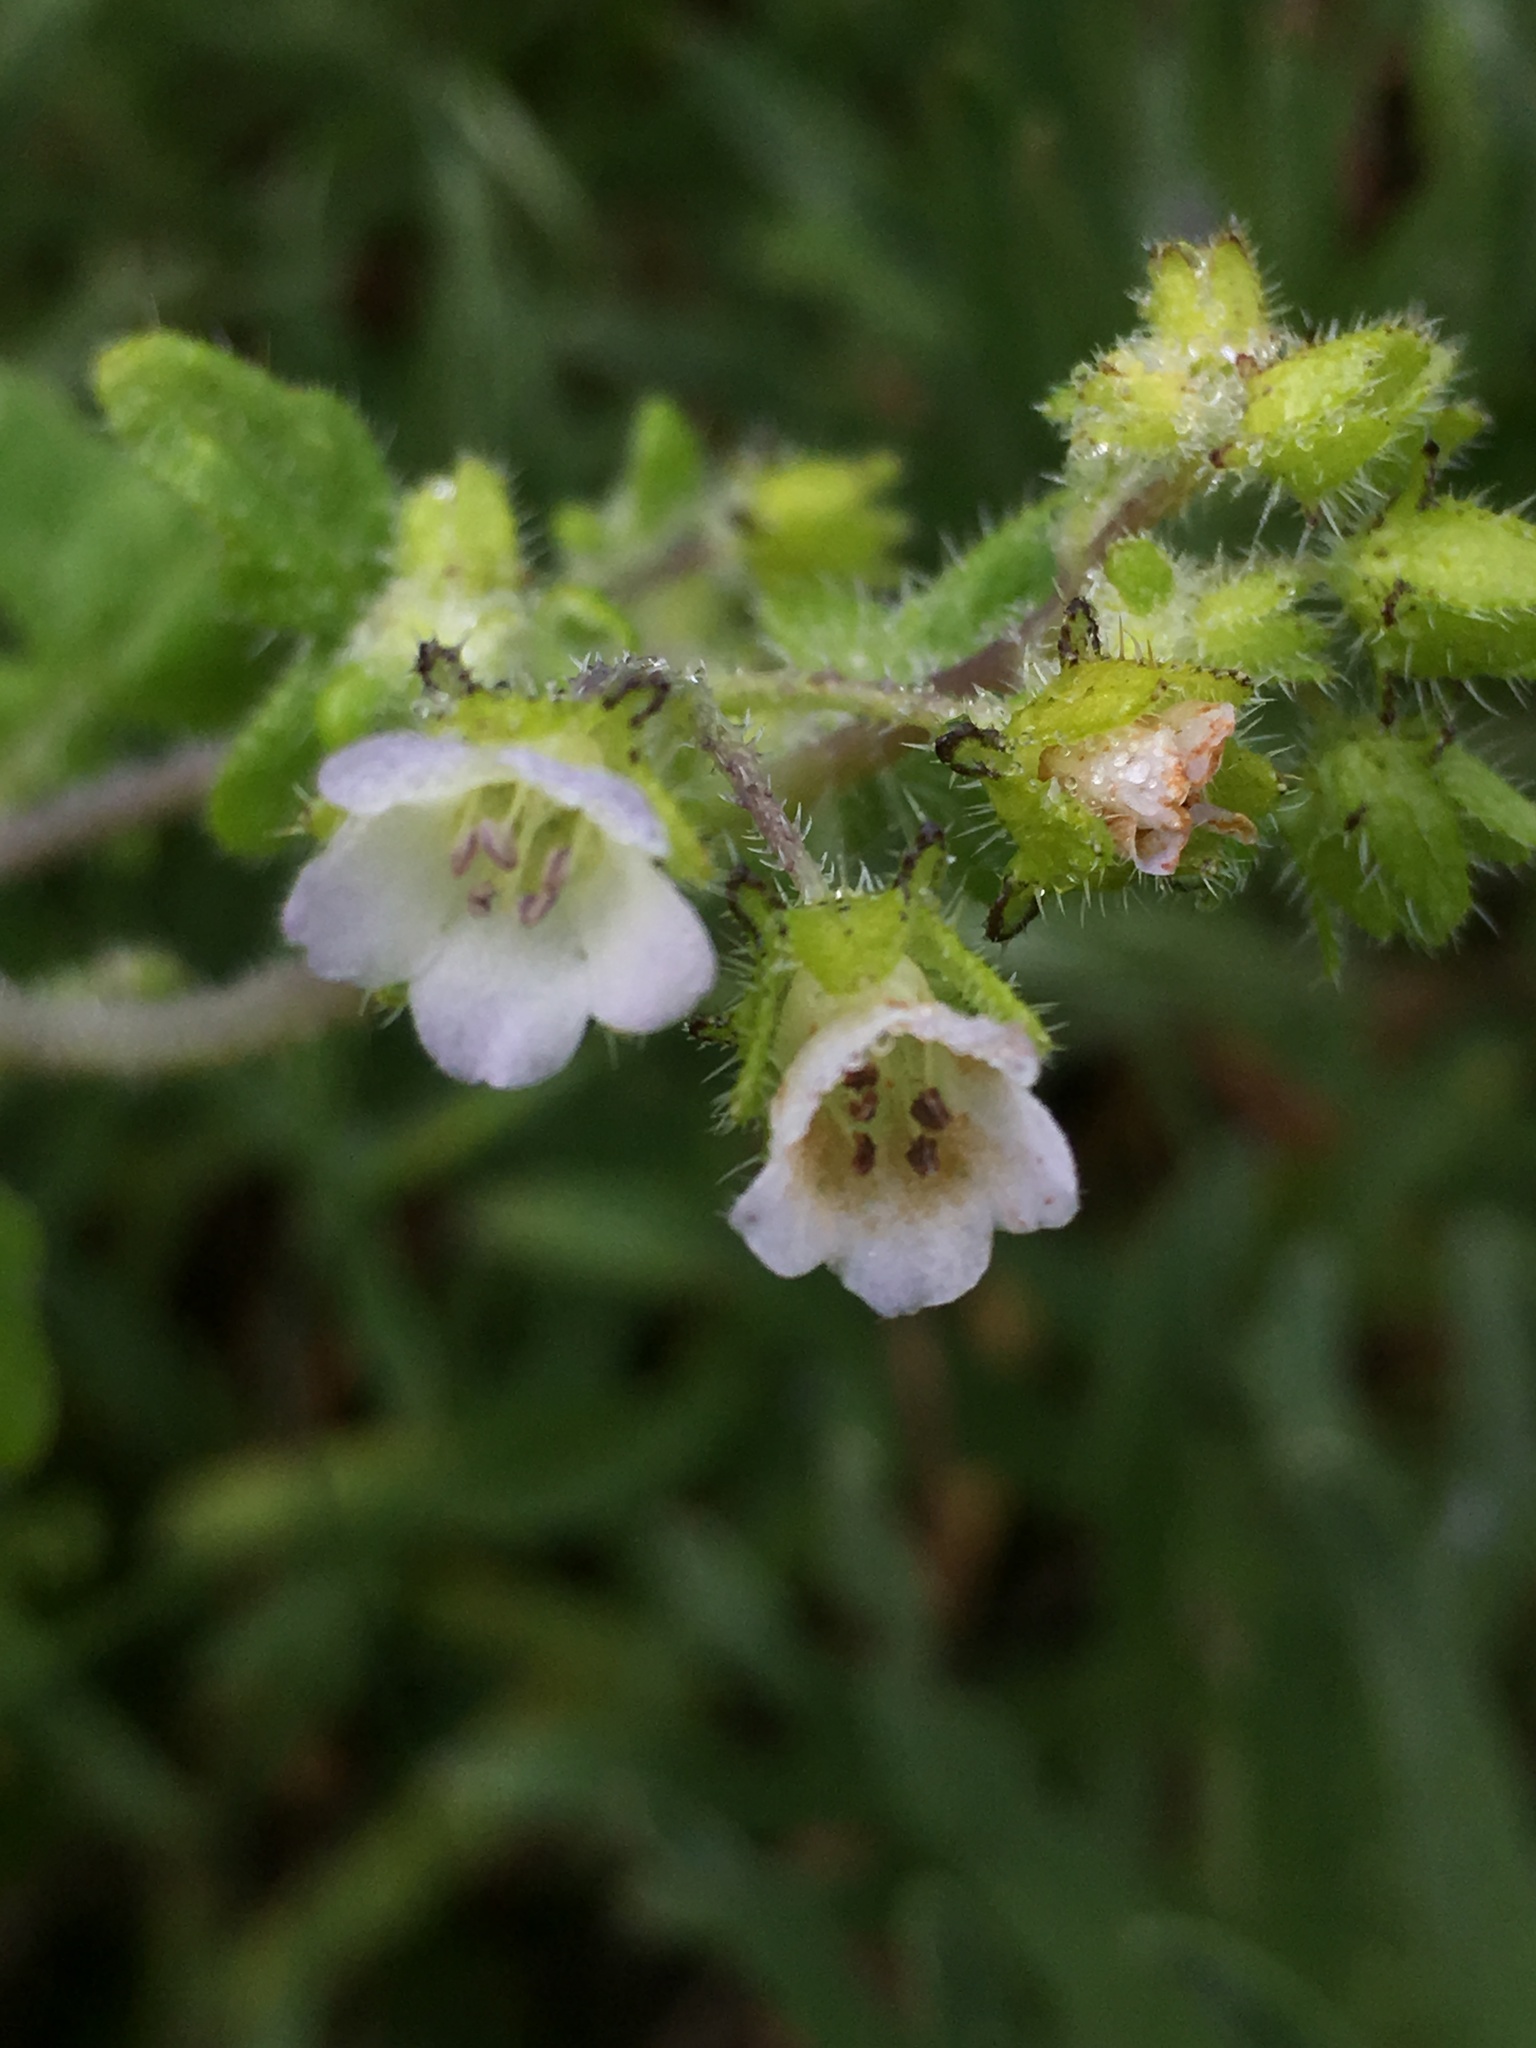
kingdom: Plantae
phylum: Tracheophyta
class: Magnoliopsida
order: Boraginales
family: Hydrophyllaceae
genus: Pholistoma
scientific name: Pholistoma racemosum
